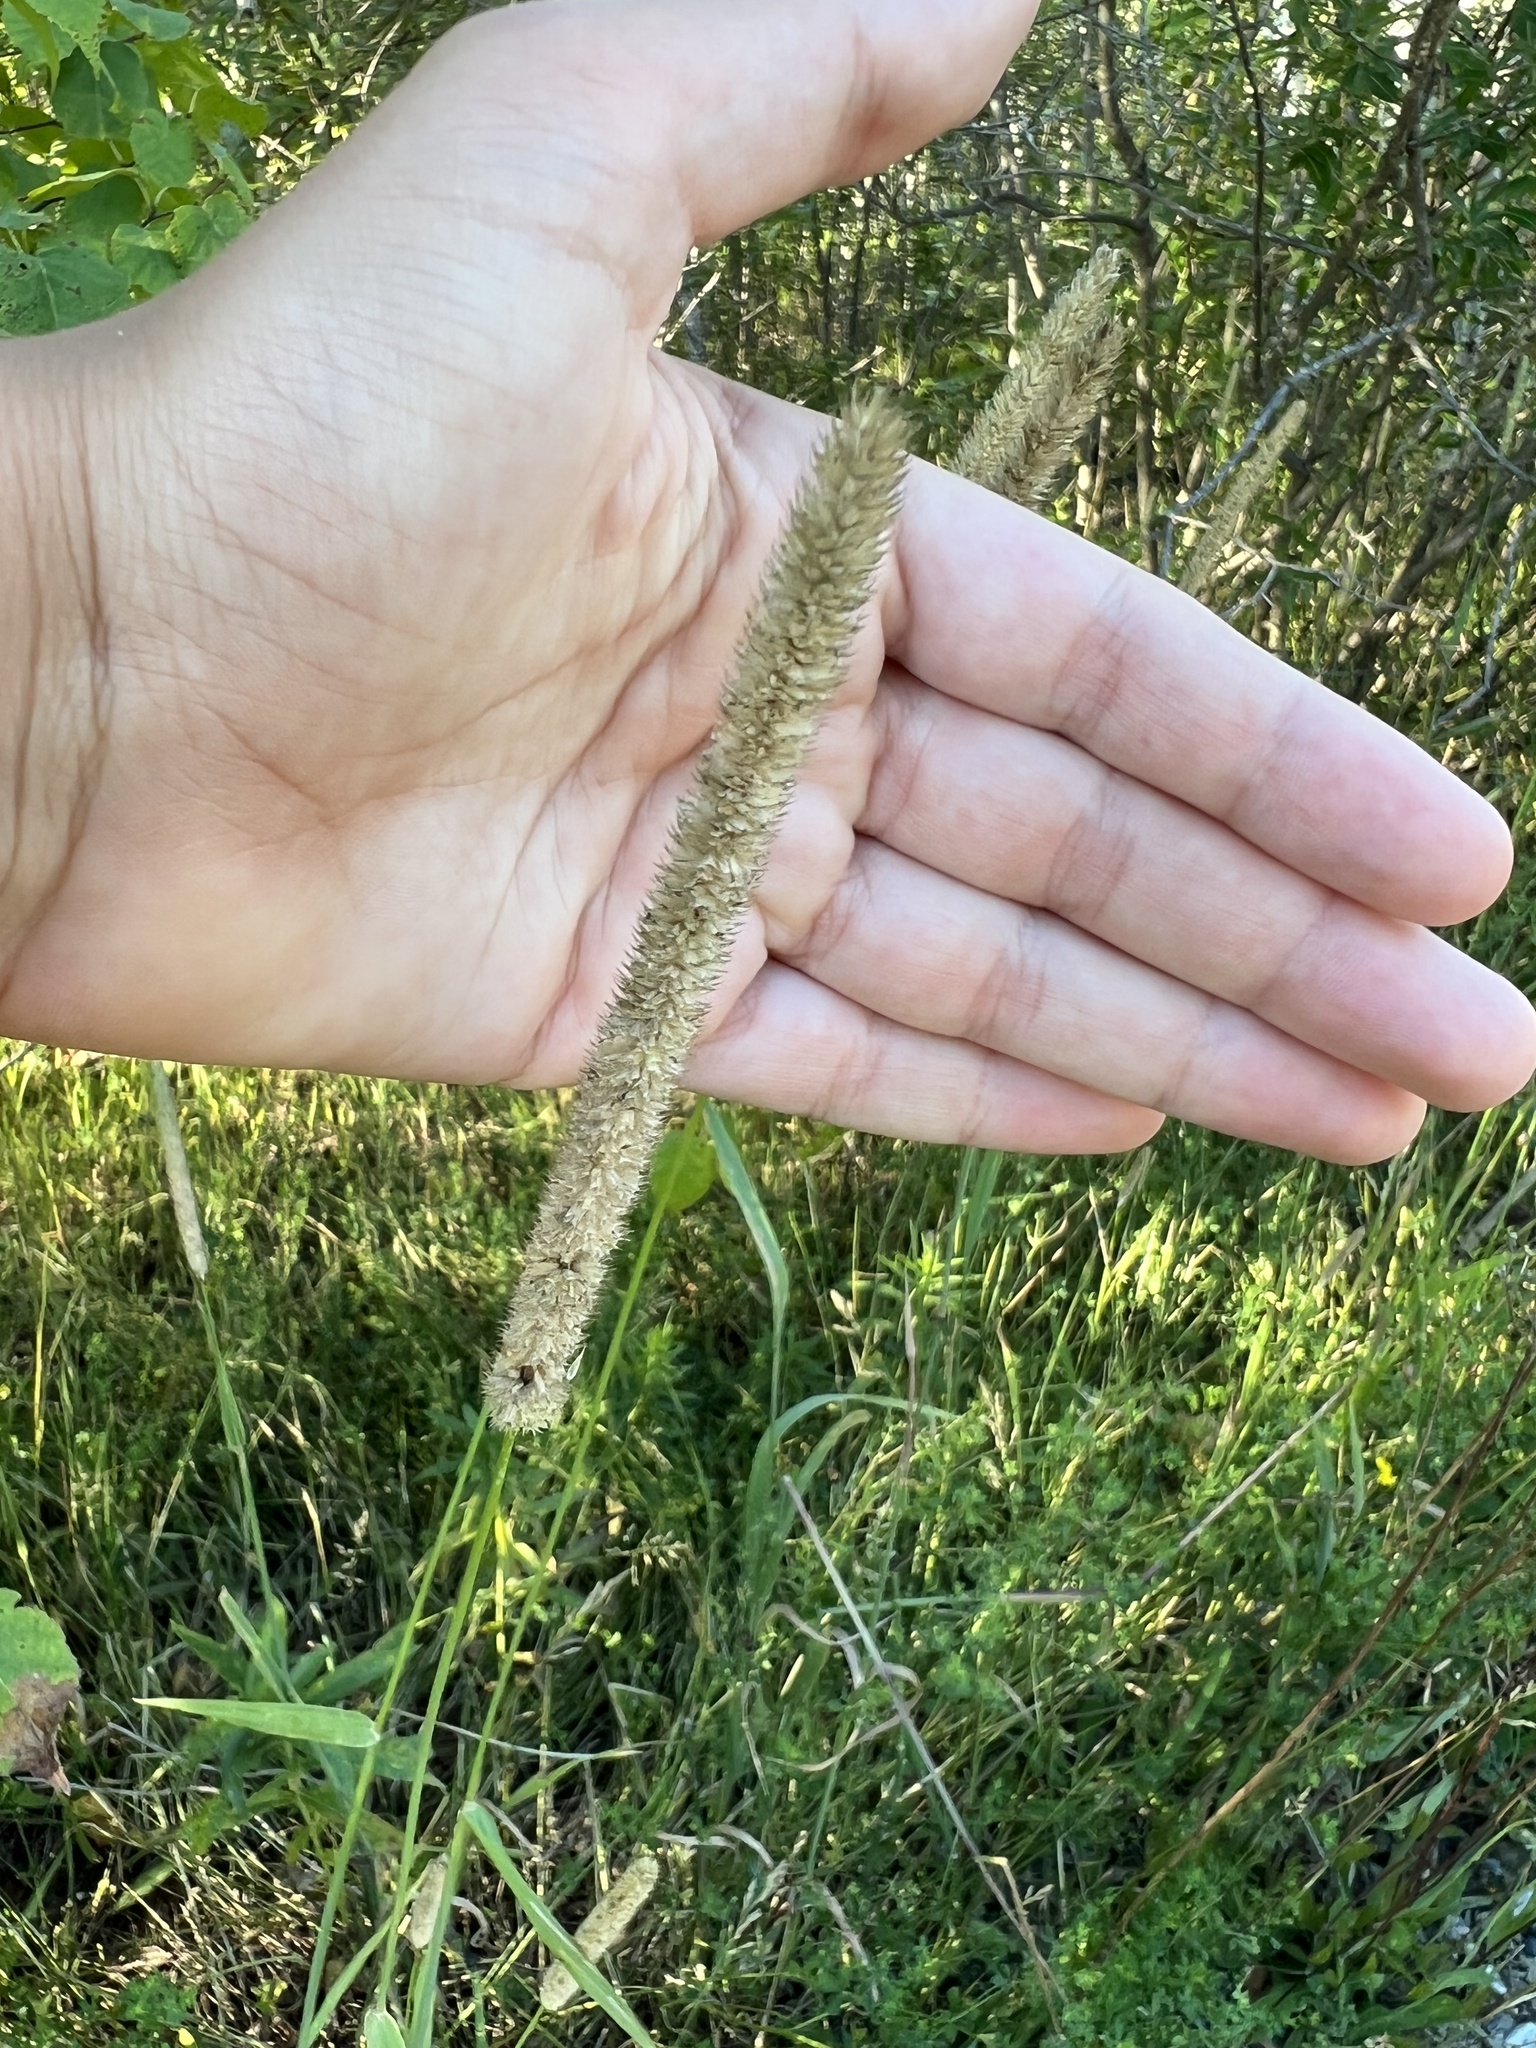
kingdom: Plantae
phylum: Tracheophyta
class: Liliopsida
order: Poales
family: Poaceae
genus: Phleum
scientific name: Phleum pratense
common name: Timothy grass
